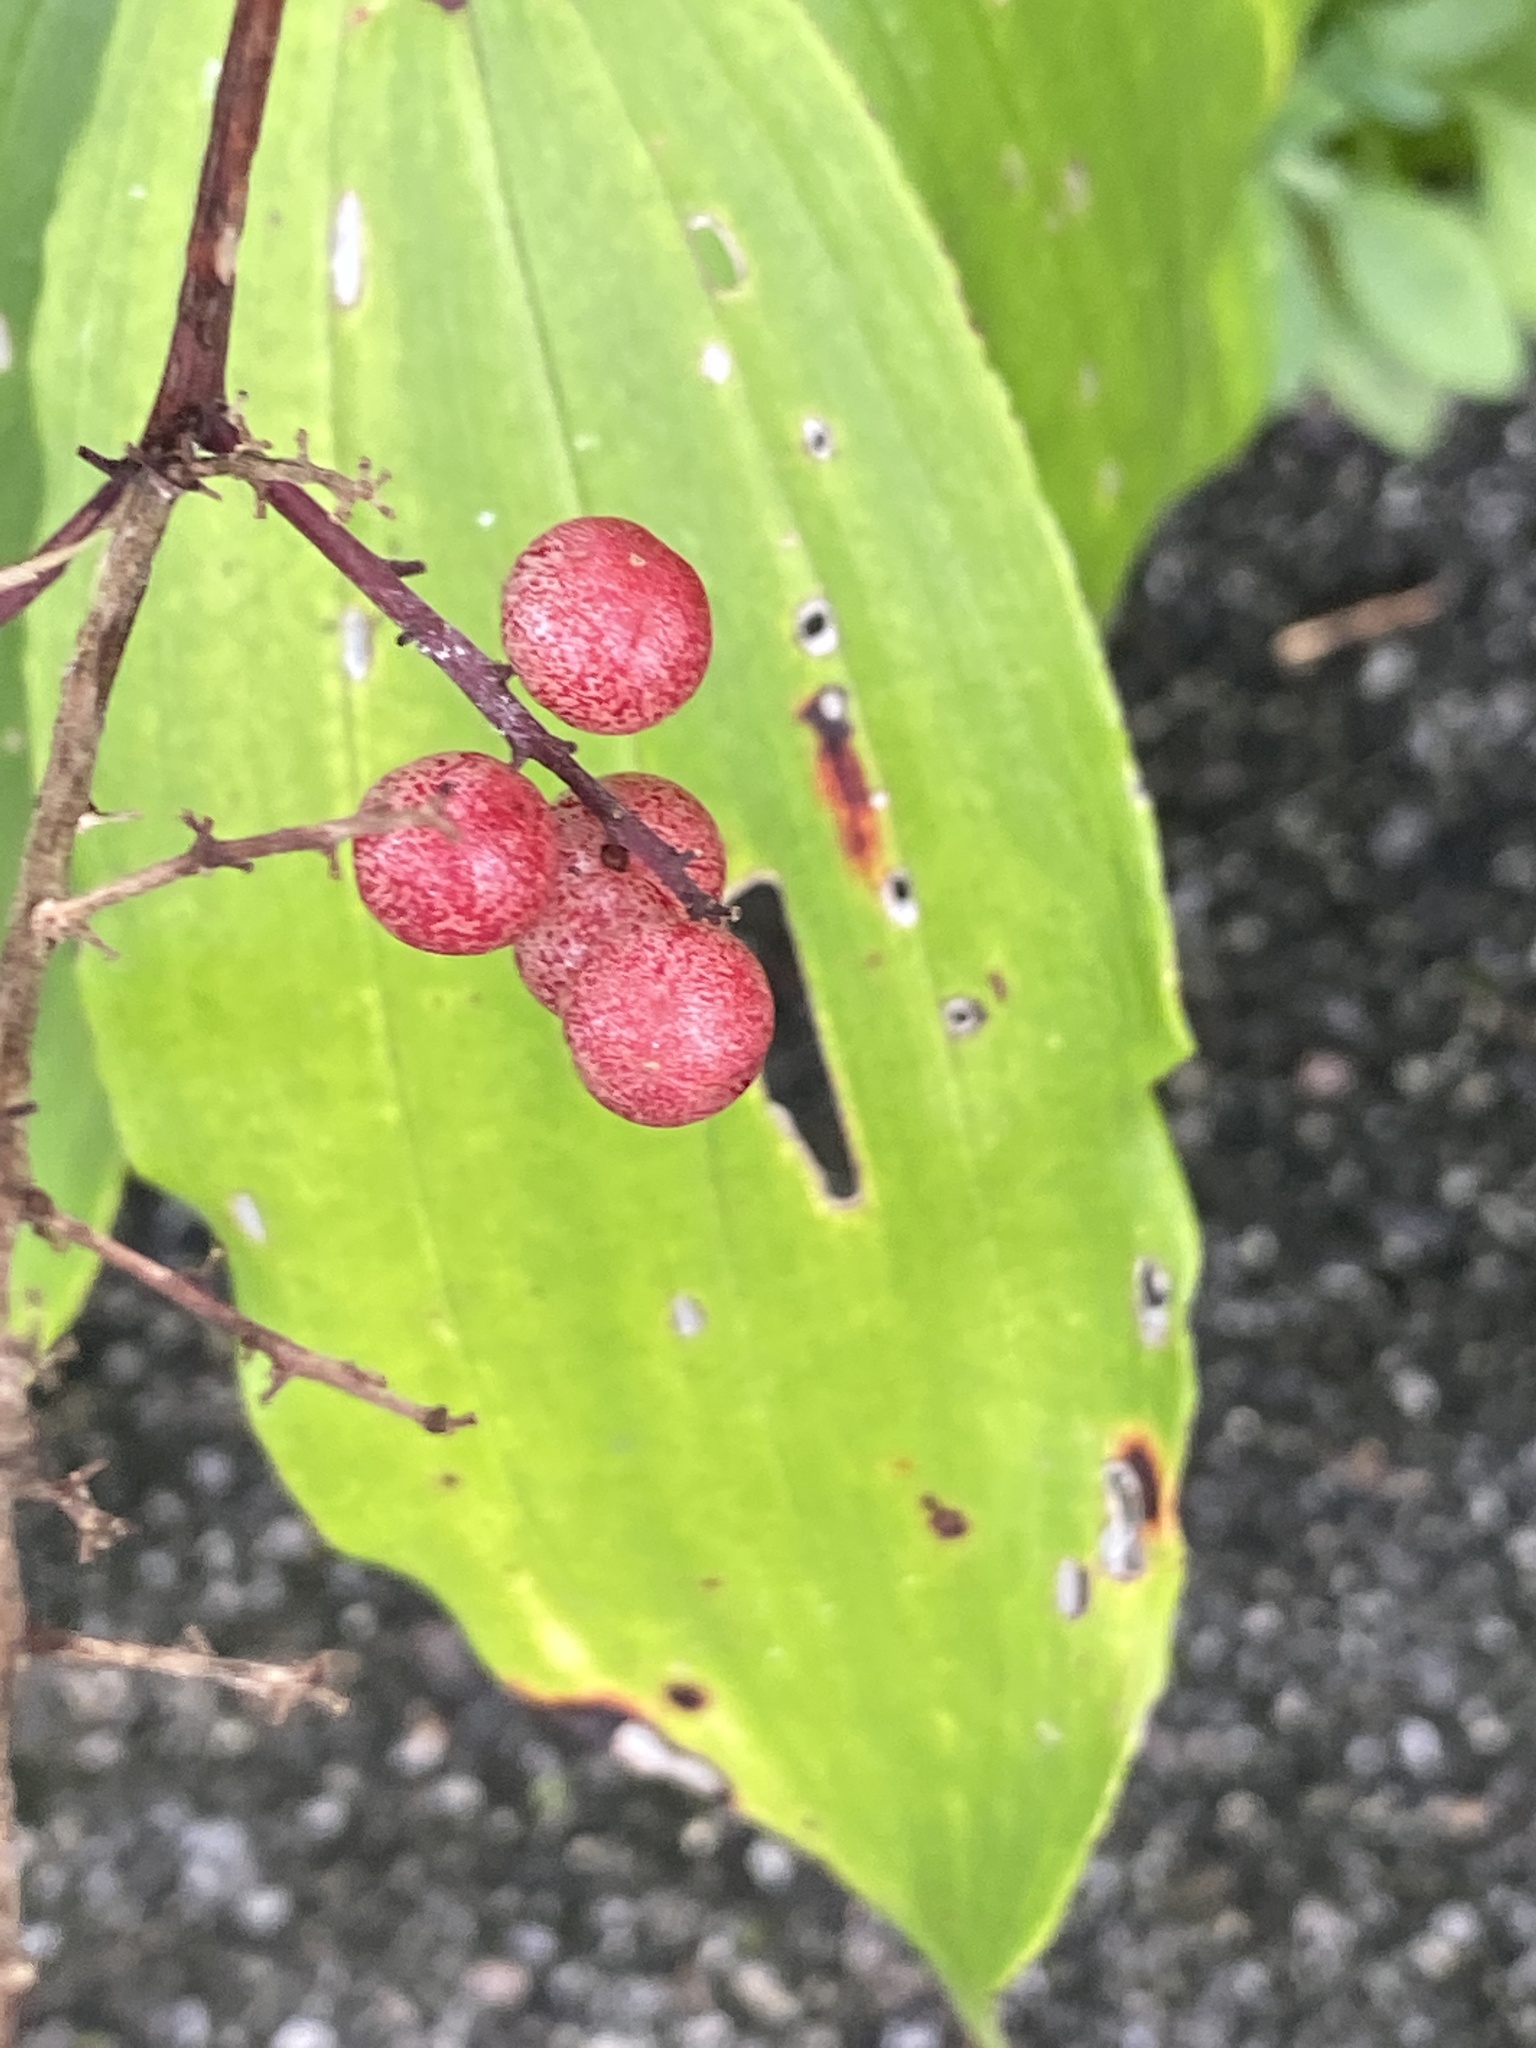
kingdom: Plantae
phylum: Tracheophyta
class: Liliopsida
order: Asparagales
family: Asparagaceae
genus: Maianthemum
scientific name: Maianthemum racemosum
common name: False spikenard
